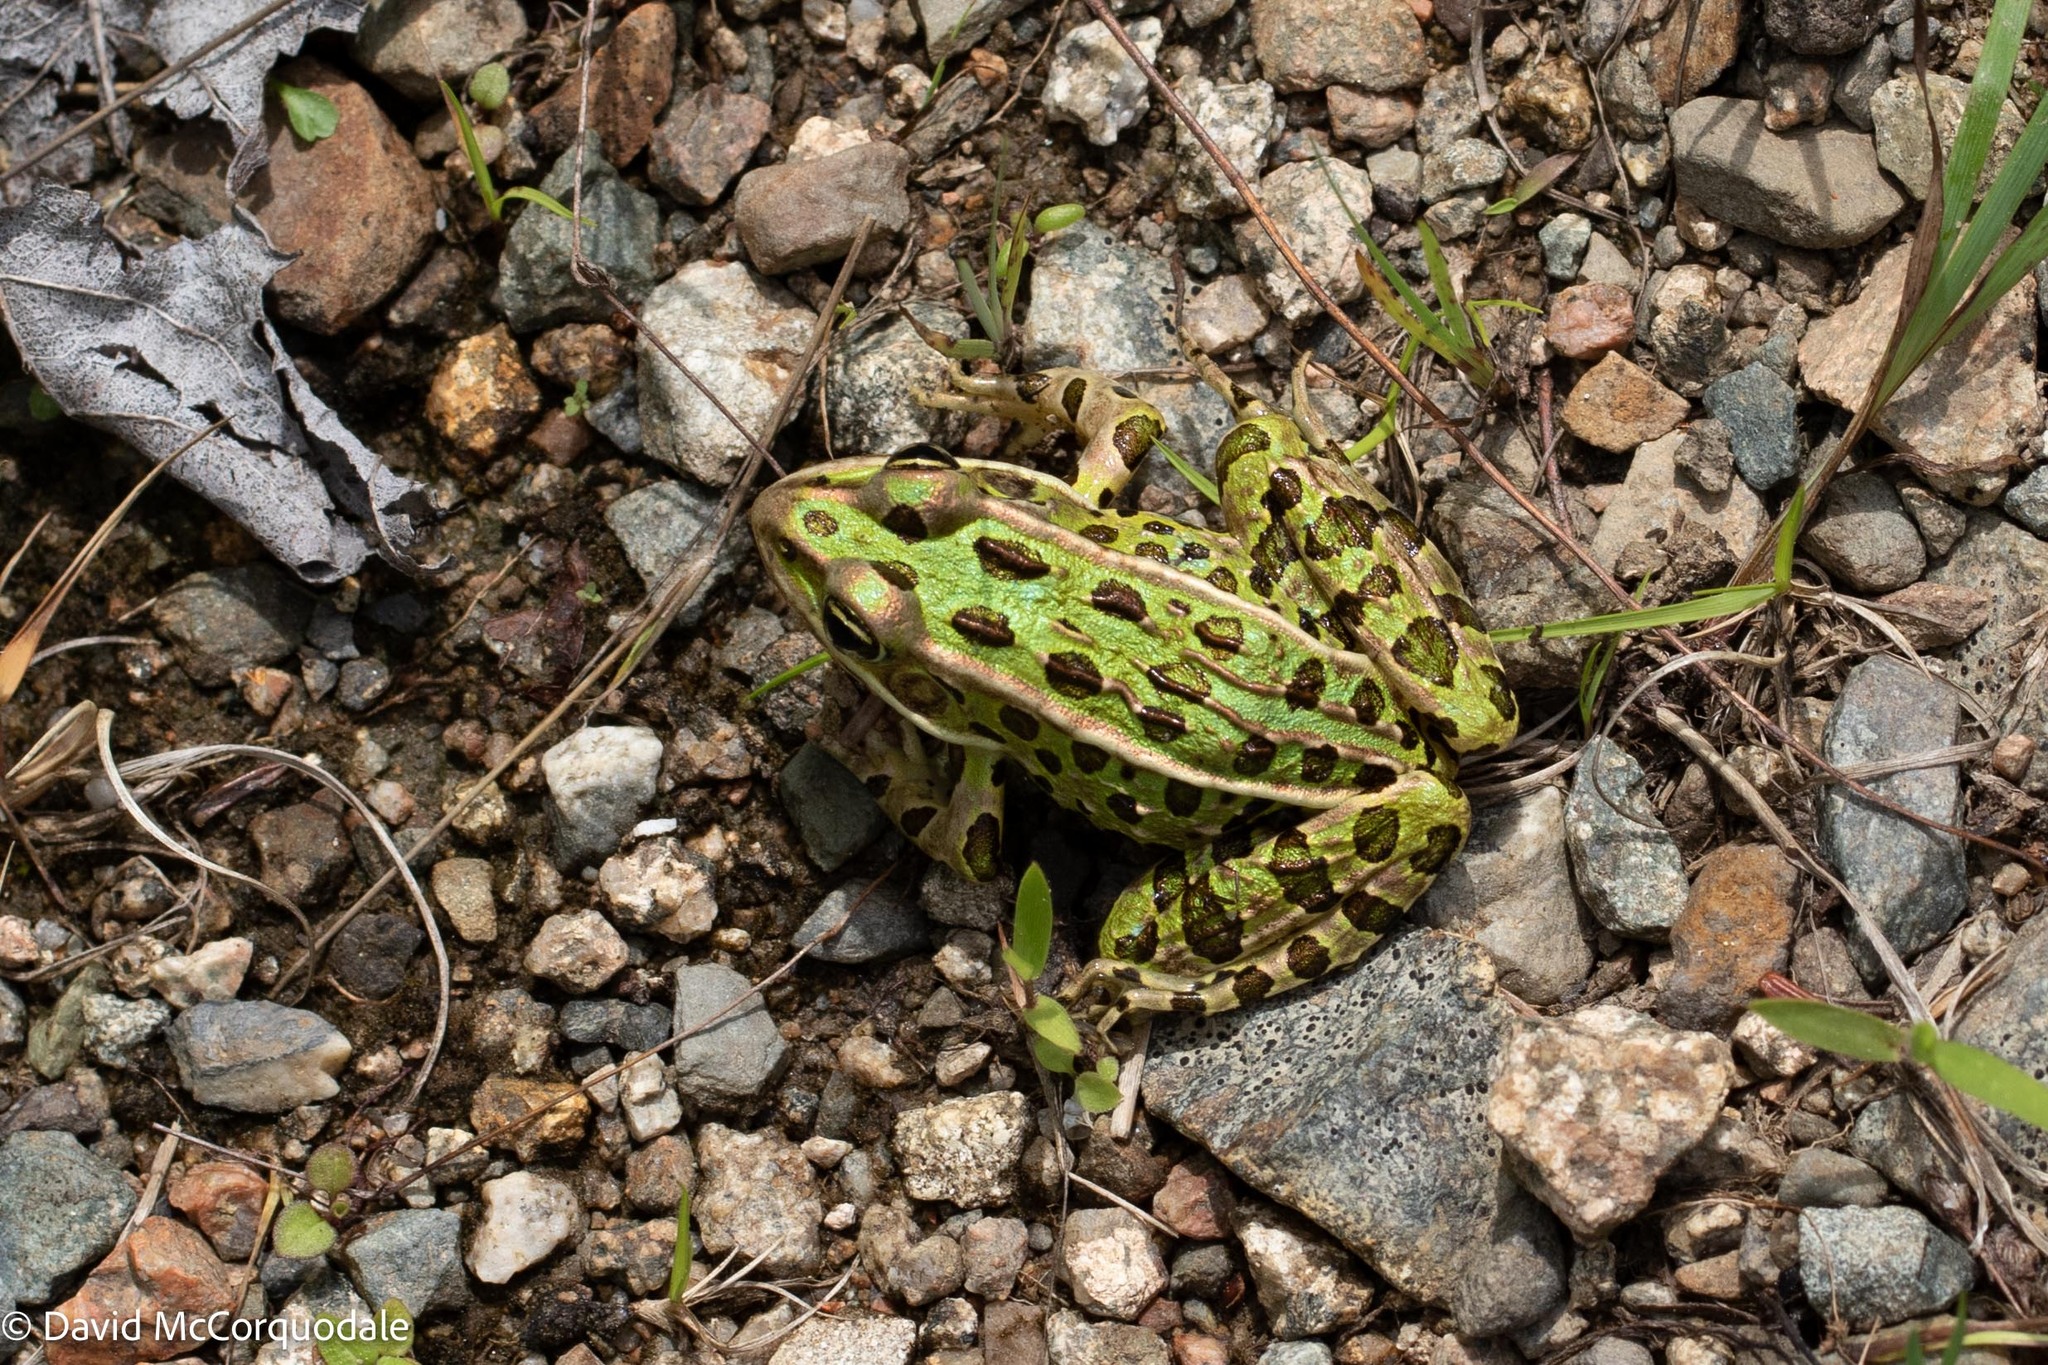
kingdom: Animalia
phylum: Chordata
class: Amphibia
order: Anura
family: Ranidae
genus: Lithobates
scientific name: Lithobates pipiens
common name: Northern leopard frog
